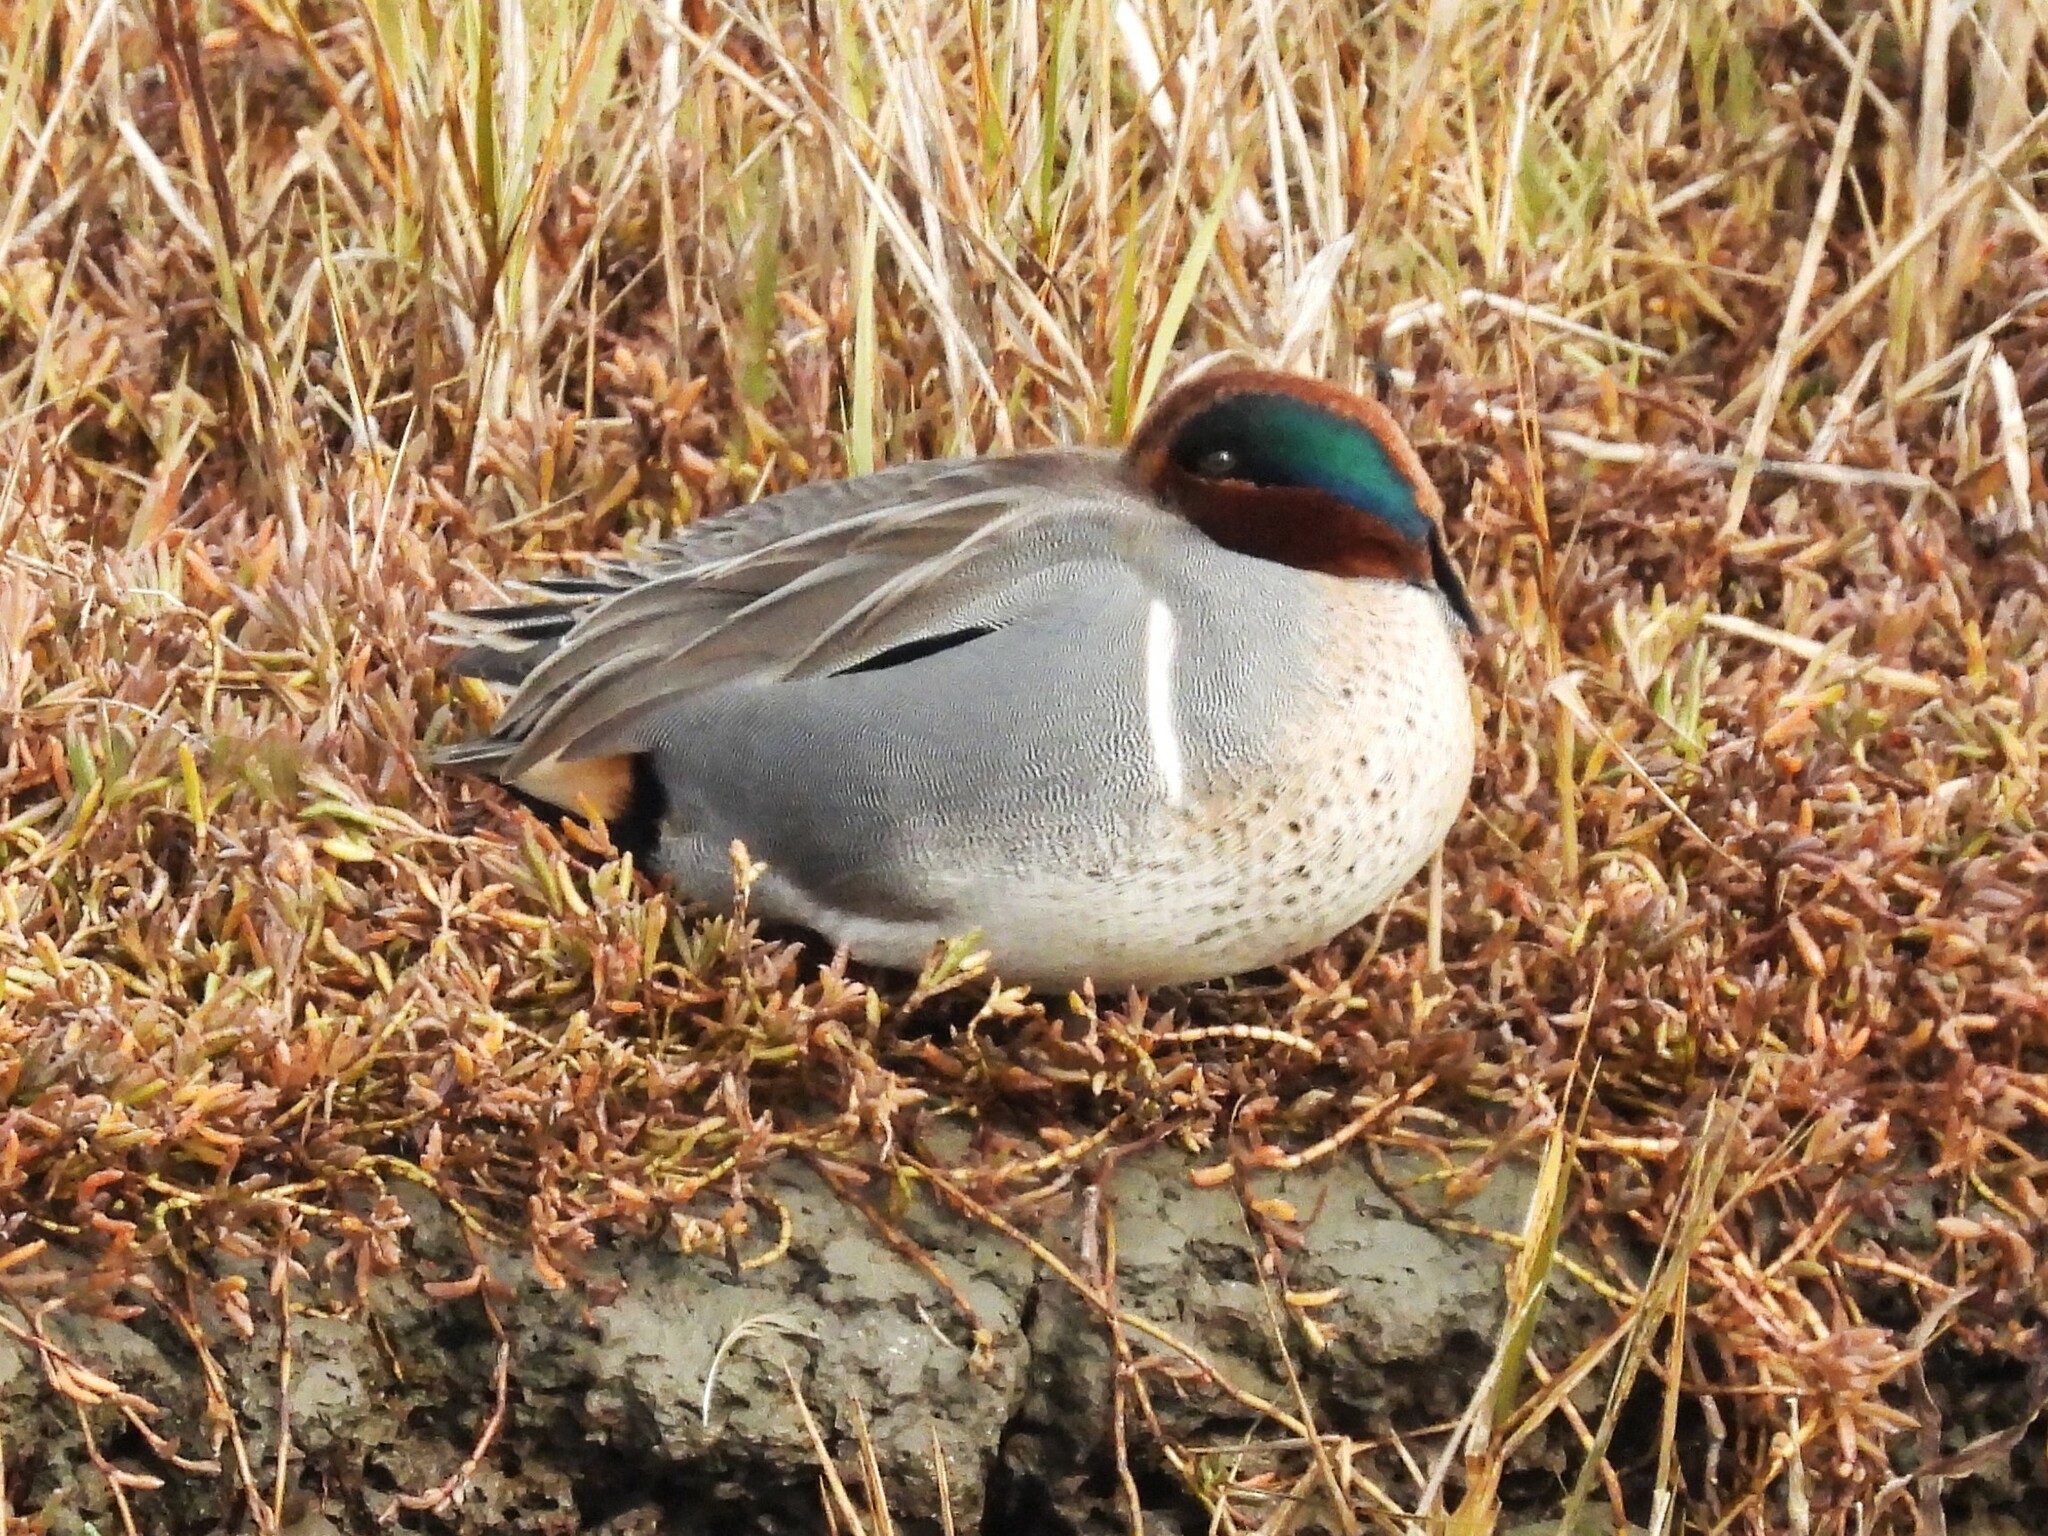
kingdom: Animalia
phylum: Chordata
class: Aves
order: Anseriformes
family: Anatidae
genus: Anas
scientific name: Anas crecca
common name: Eurasian teal
